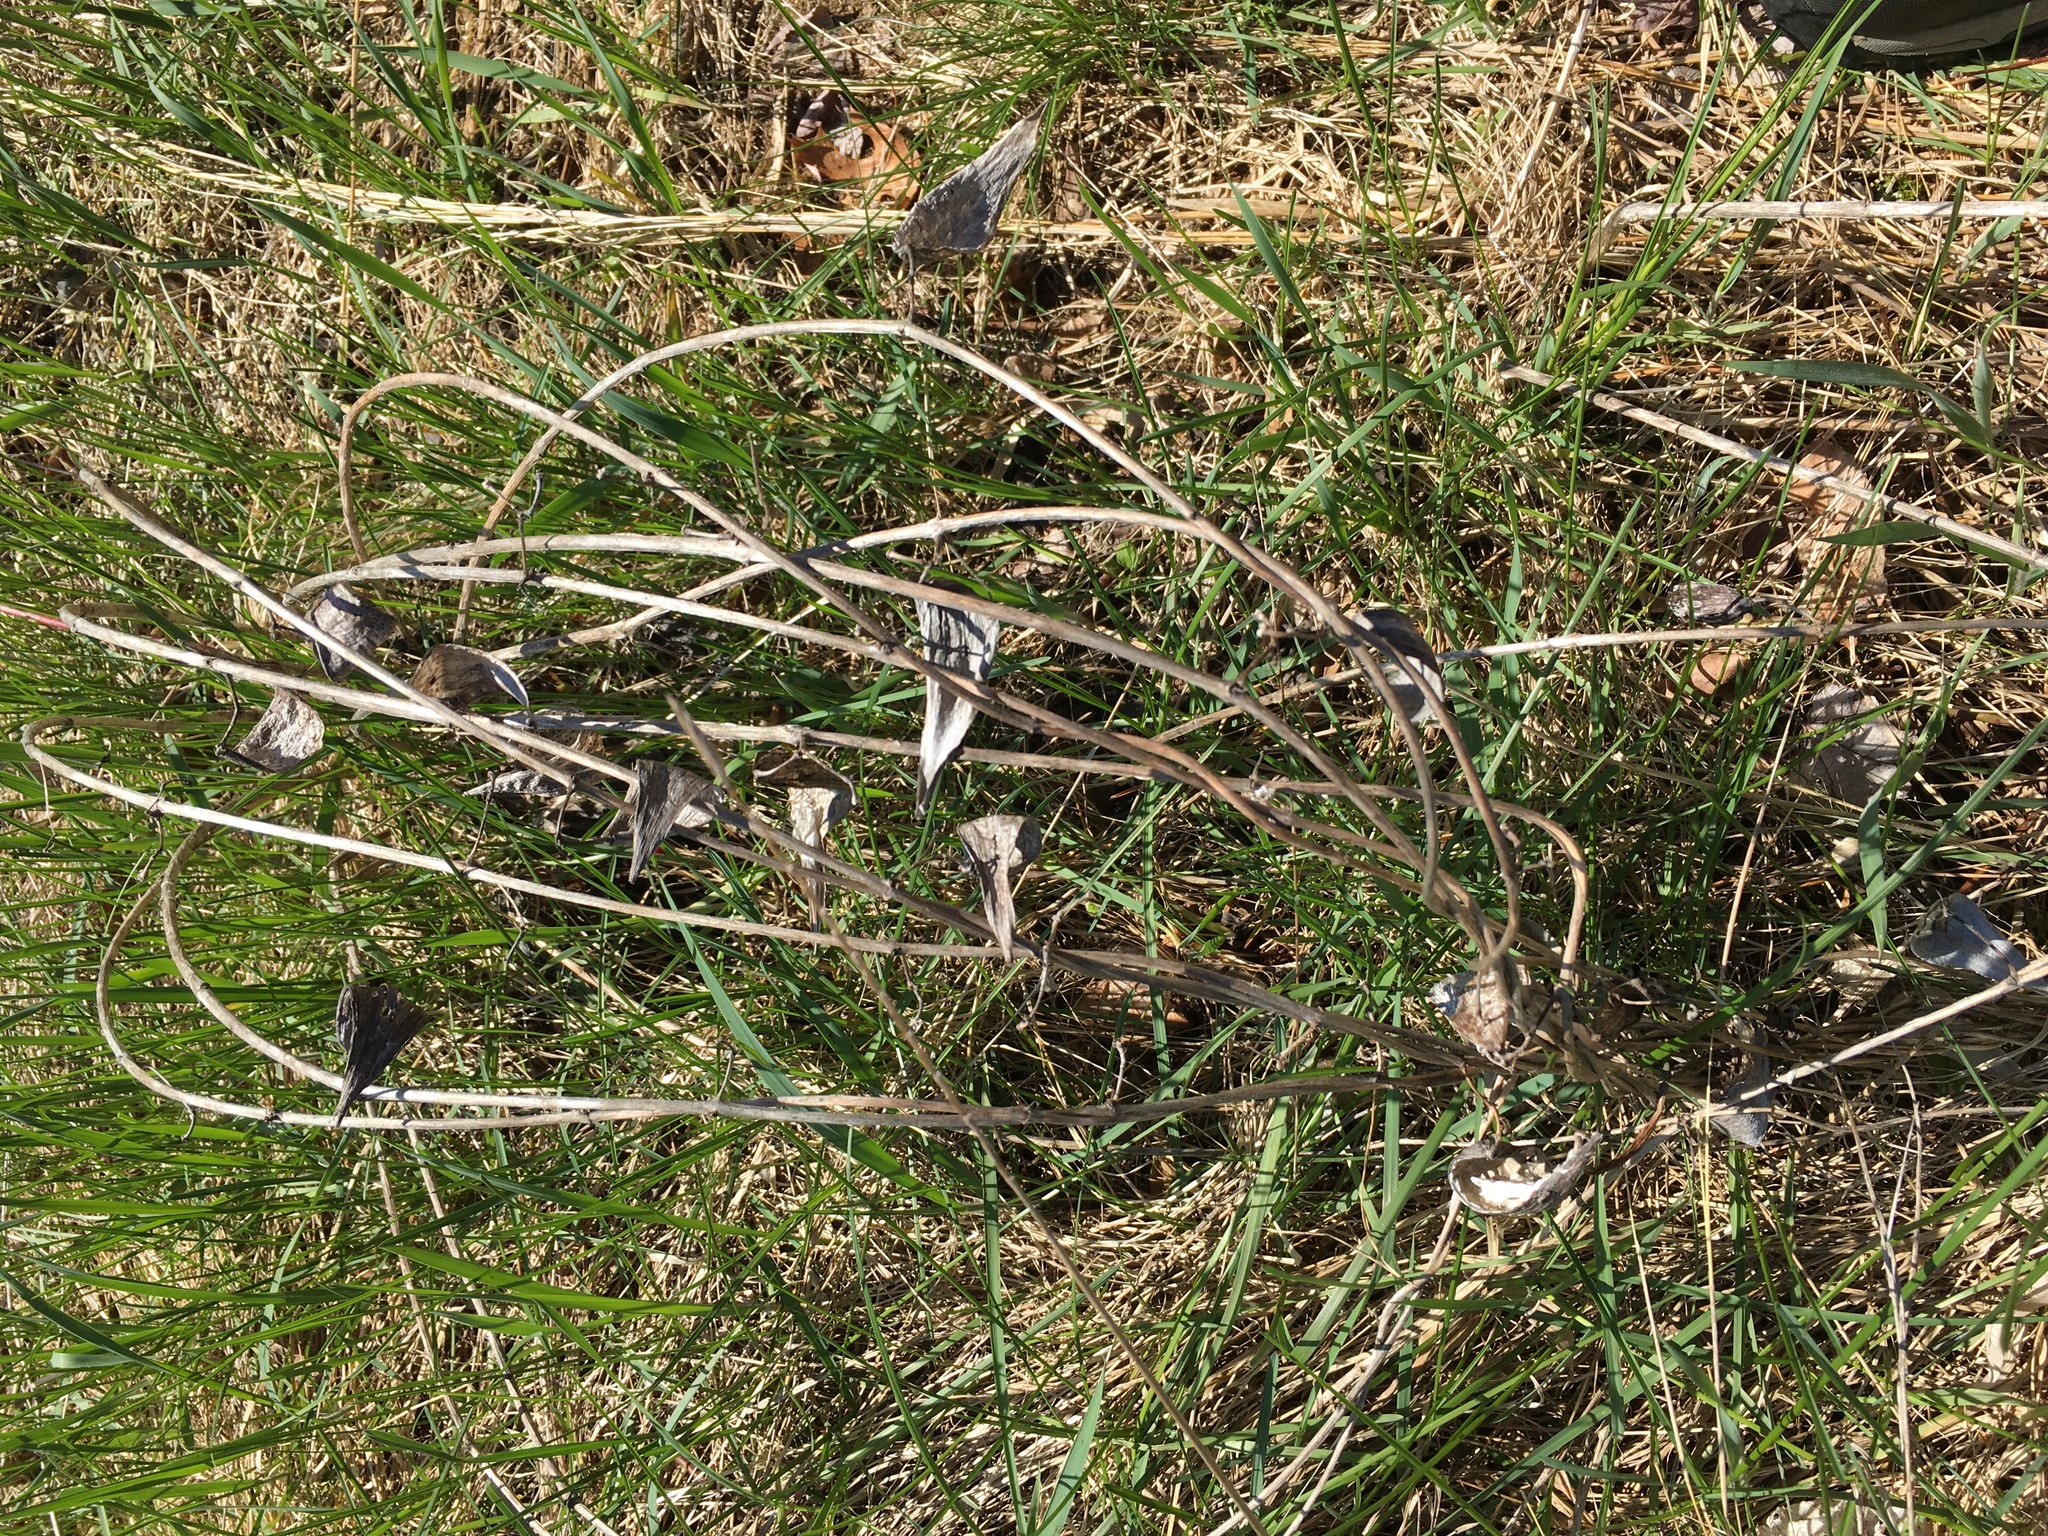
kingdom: Plantae
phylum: Tracheophyta
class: Magnoliopsida
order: Gentianales
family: Apocynaceae
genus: Asclepias
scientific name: Asclepias syriaca
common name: Common milkweed
